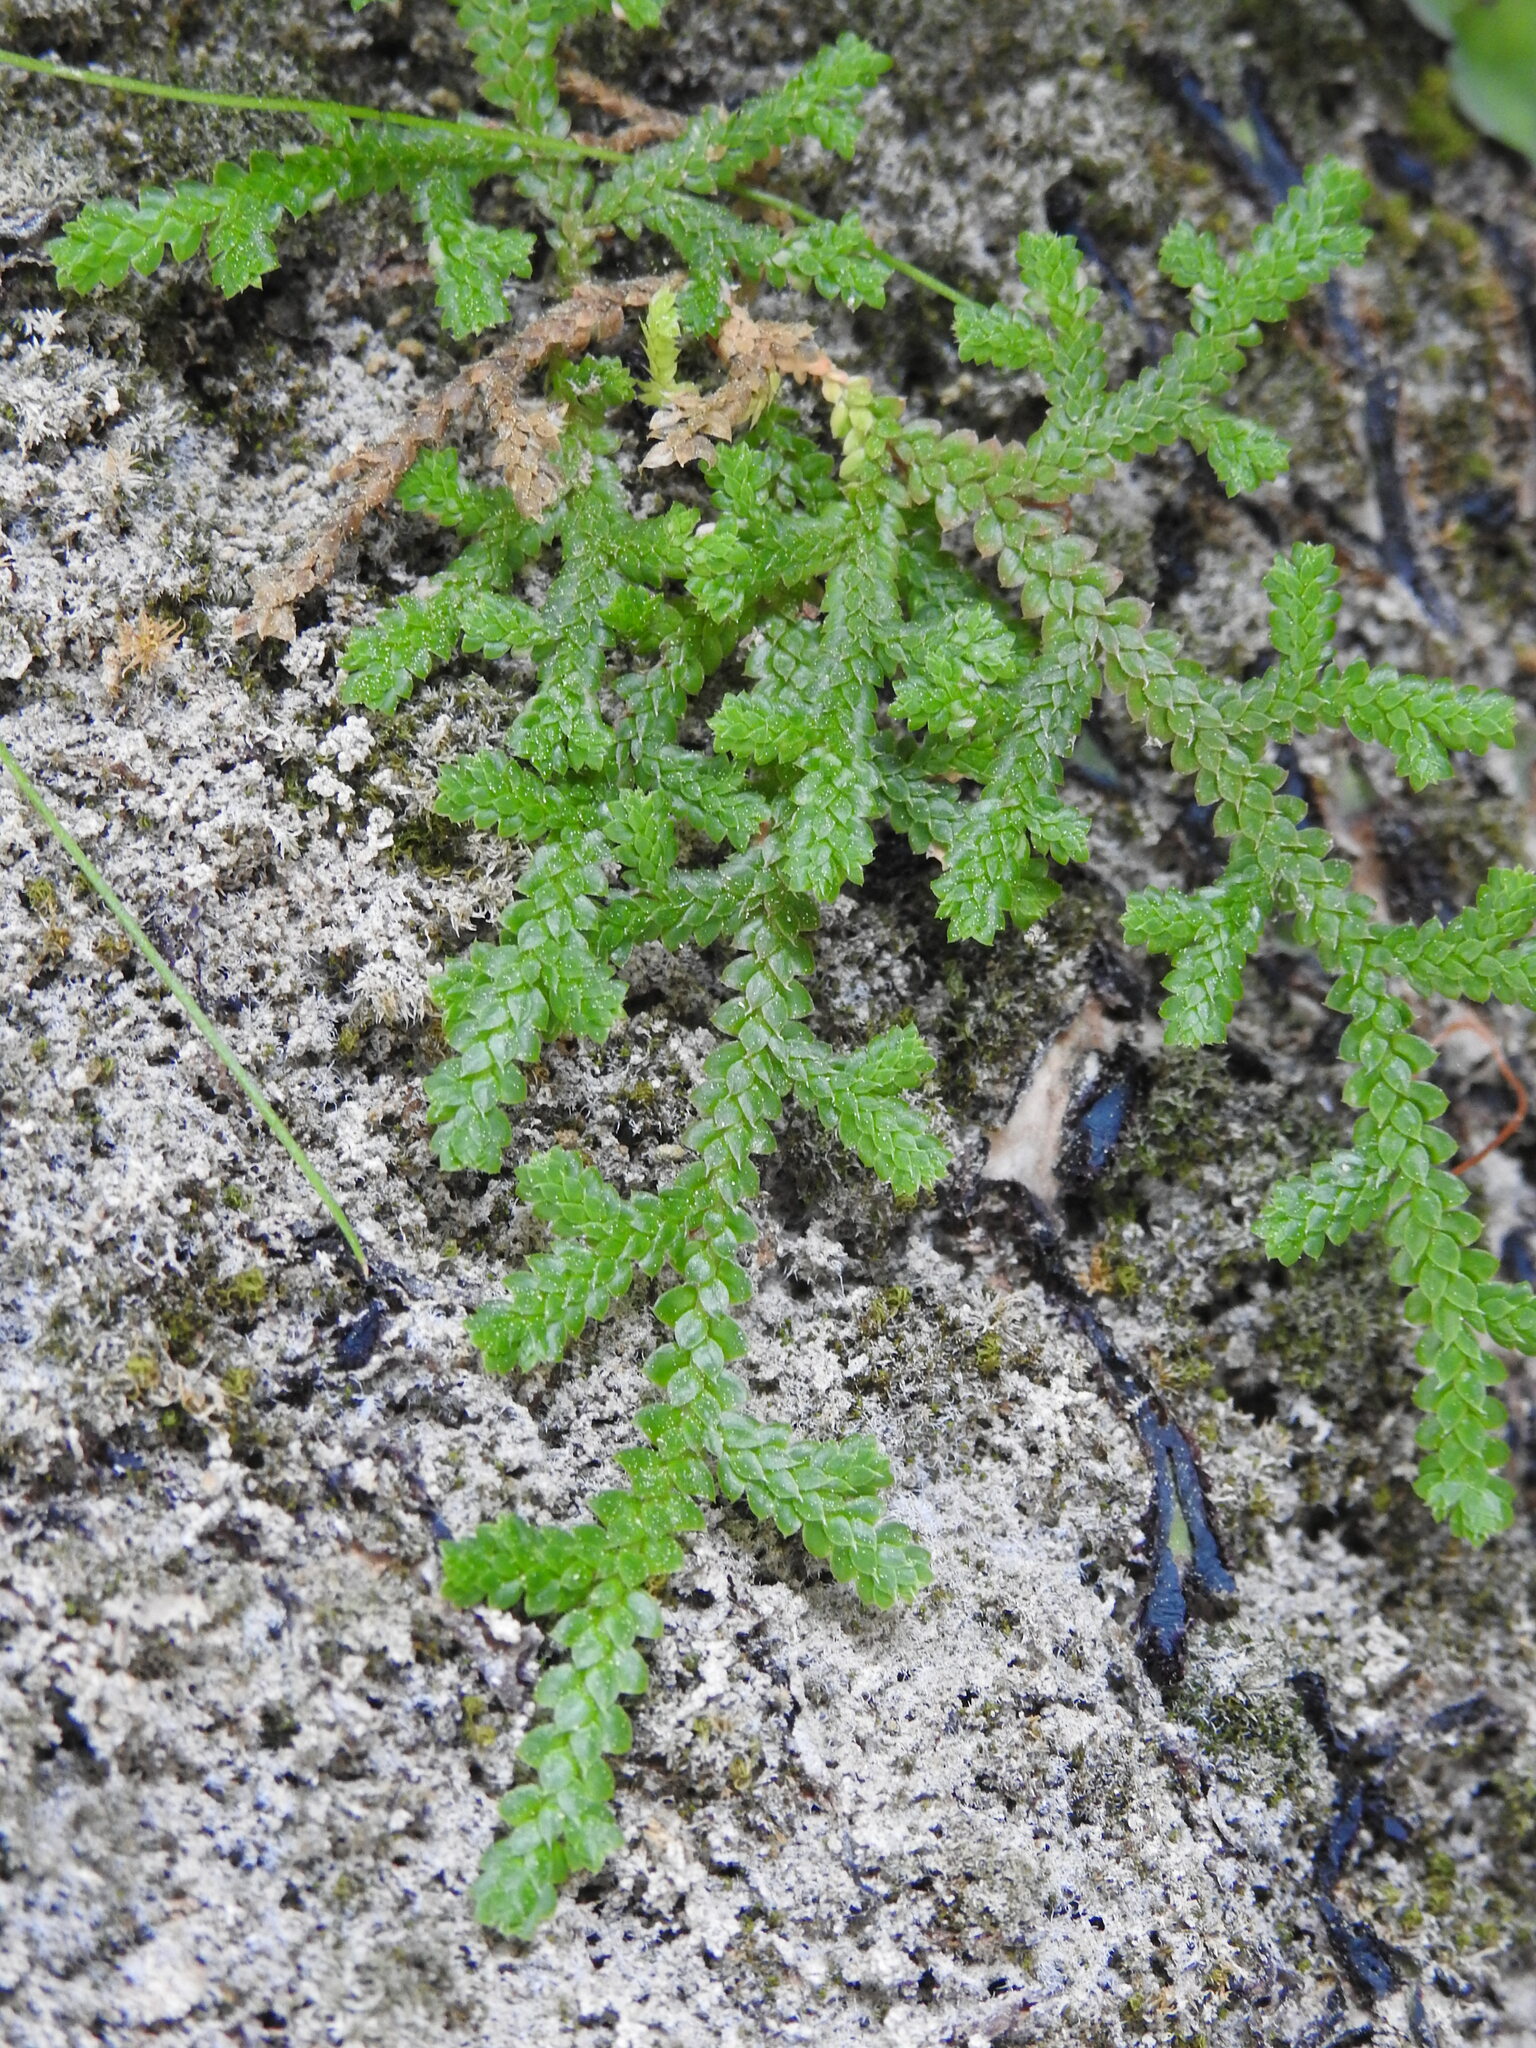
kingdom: Plantae
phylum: Tracheophyta
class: Lycopodiopsida
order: Selaginellales
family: Selaginellaceae
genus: Selaginella
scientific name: Selaginella denticulata
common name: Toothed-leaved clubmoss
